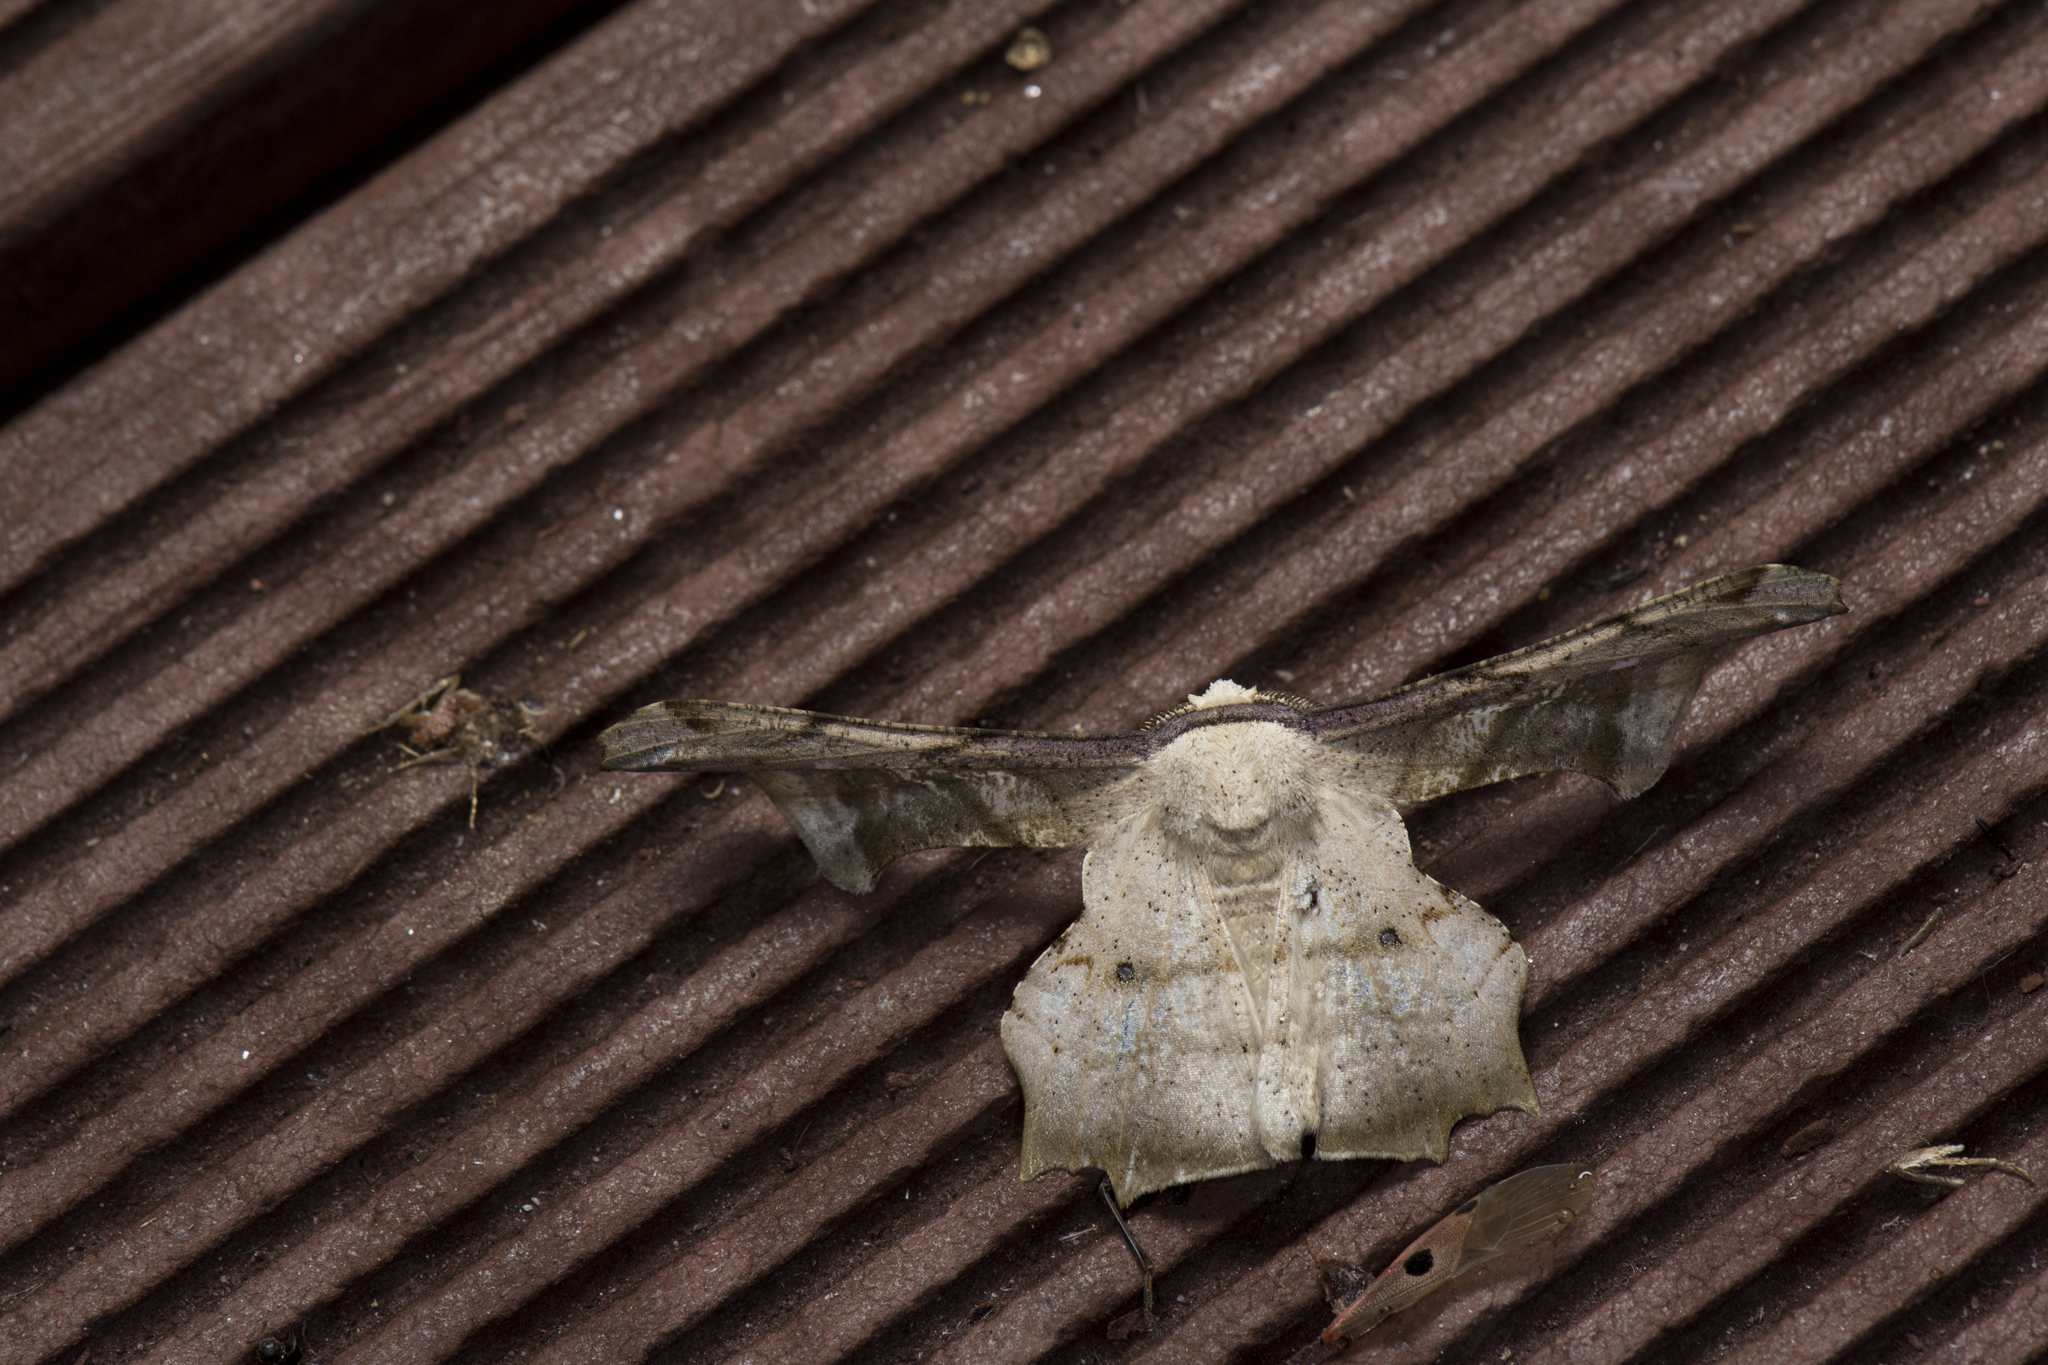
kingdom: Animalia
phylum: Arthropoda
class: Insecta
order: Lepidoptera
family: Geometridae
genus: Gonodontis
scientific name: Gonodontis pallida
